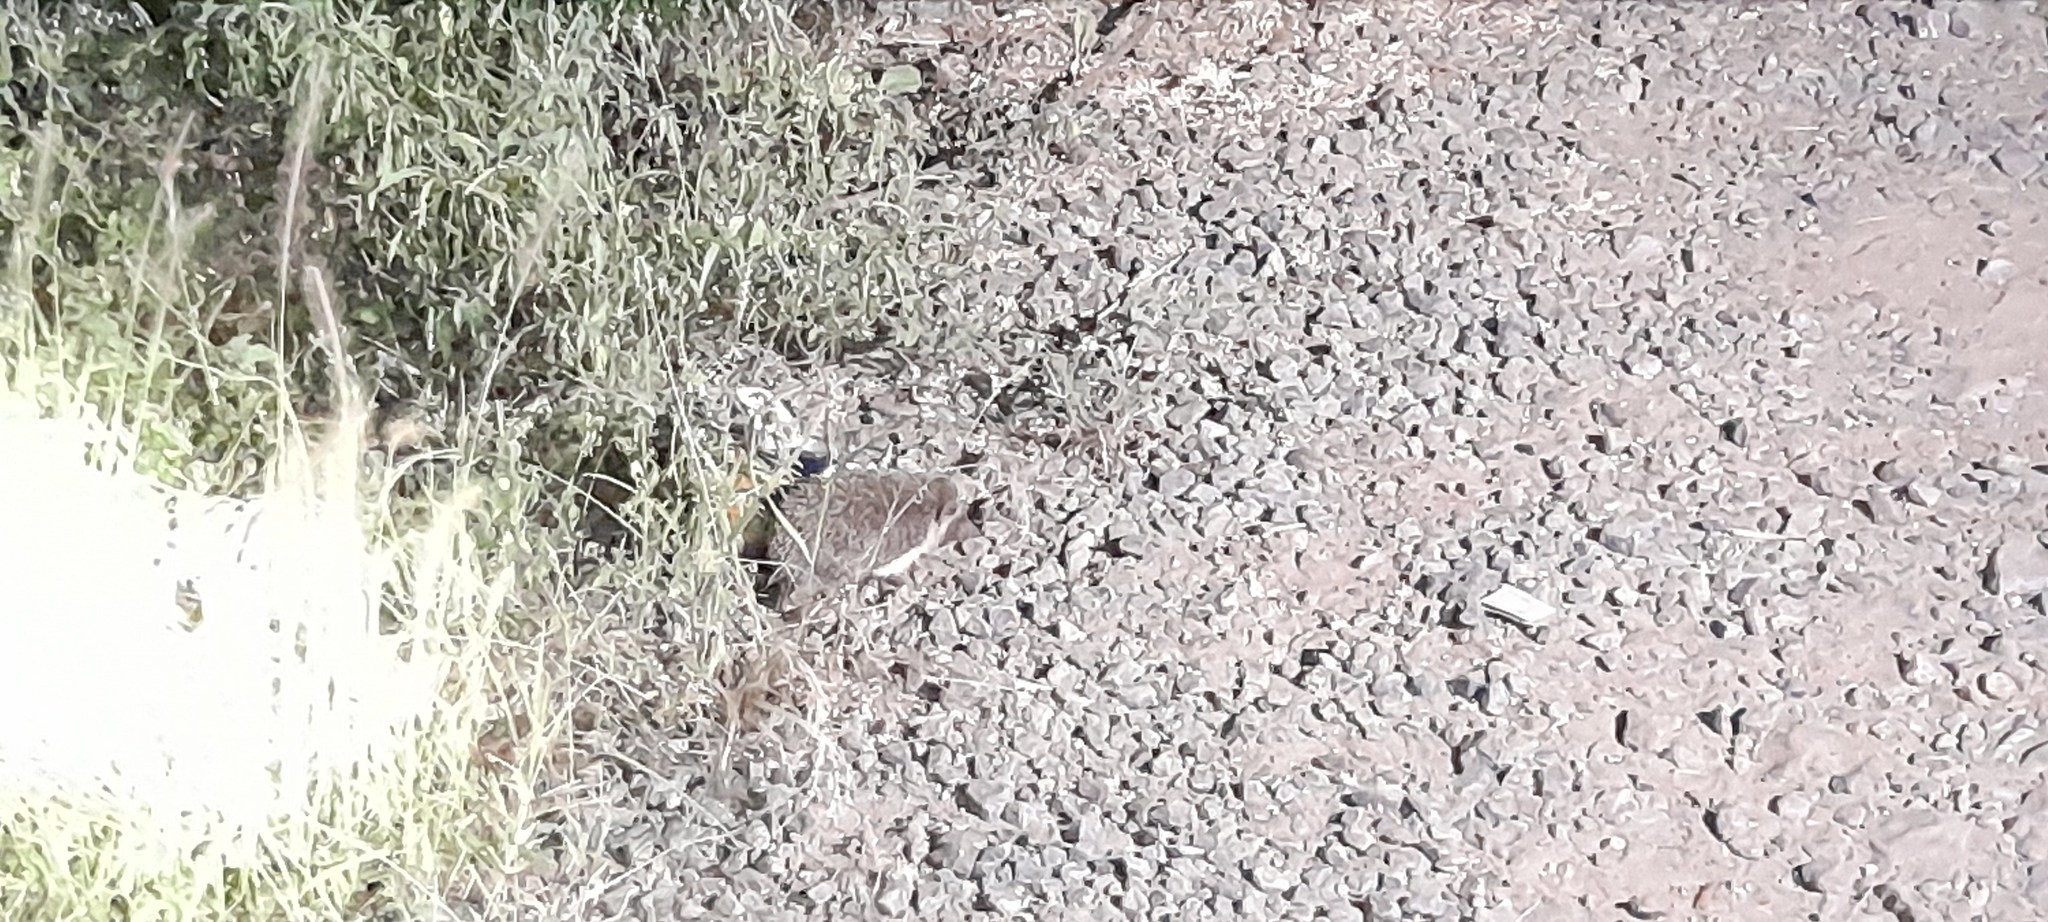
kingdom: Animalia
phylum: Chordata
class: Mammalia
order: Erinaceomorpha
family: Erinaceidae
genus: Paraechinus
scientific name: Paraechinus nudiventris
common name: Bare-bellied hedgehog
